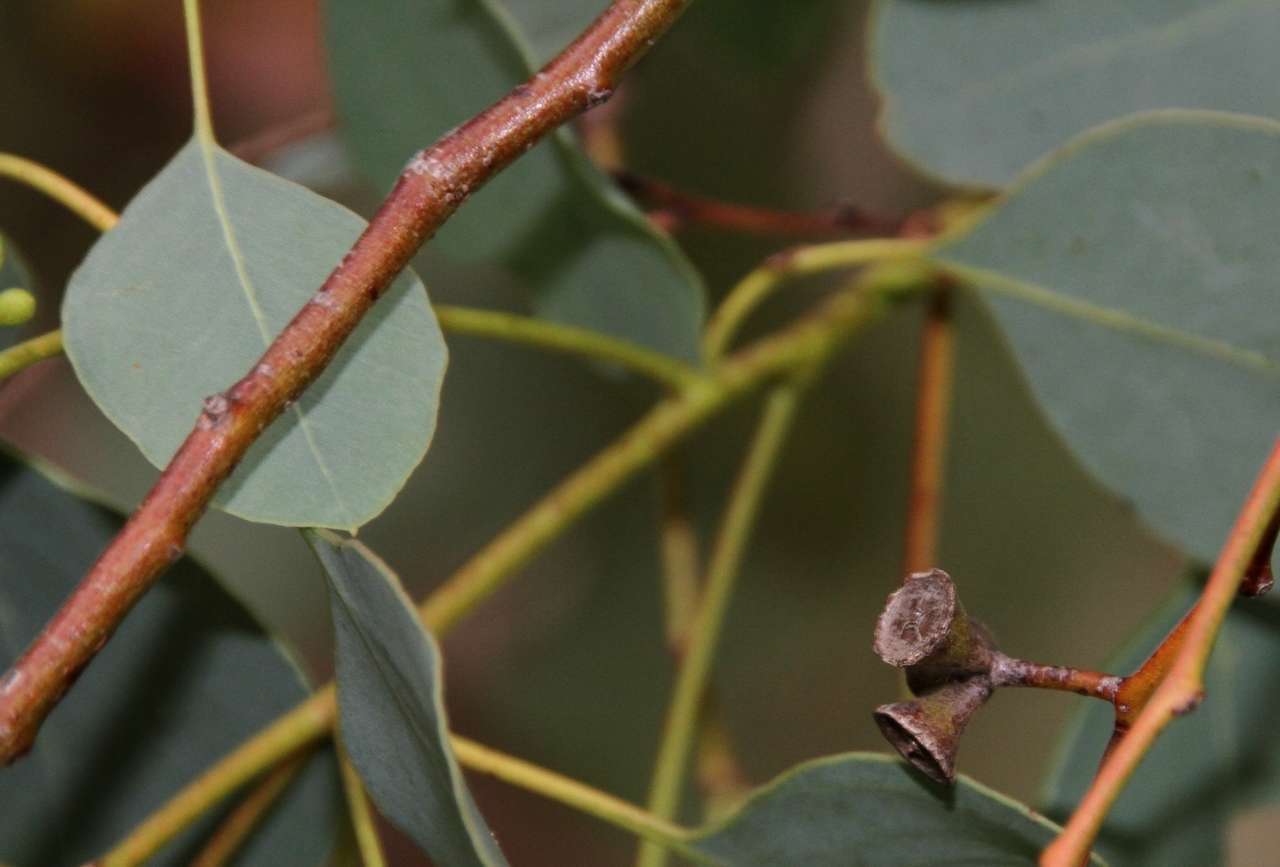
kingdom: Plantae
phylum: Tracheophyta
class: Magnoliopsida
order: Myrtales
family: Myrtaceae
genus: Eucalyptus
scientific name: Eucalyptus baueriana
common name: Round-leaf-box
